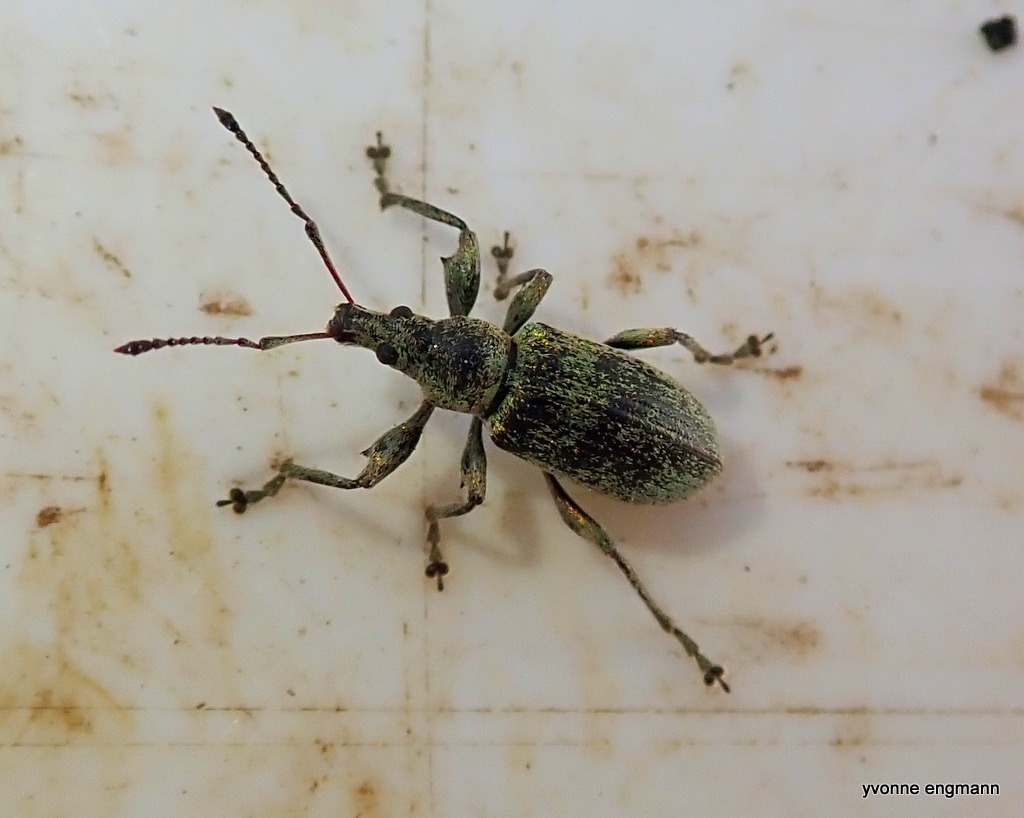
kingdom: Animalia
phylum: Arthropoda
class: Insecta
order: Coleoptera
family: Curculionidae
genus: Phyllobius
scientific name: Phyllobius pomaceus
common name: Green nettle weevil
